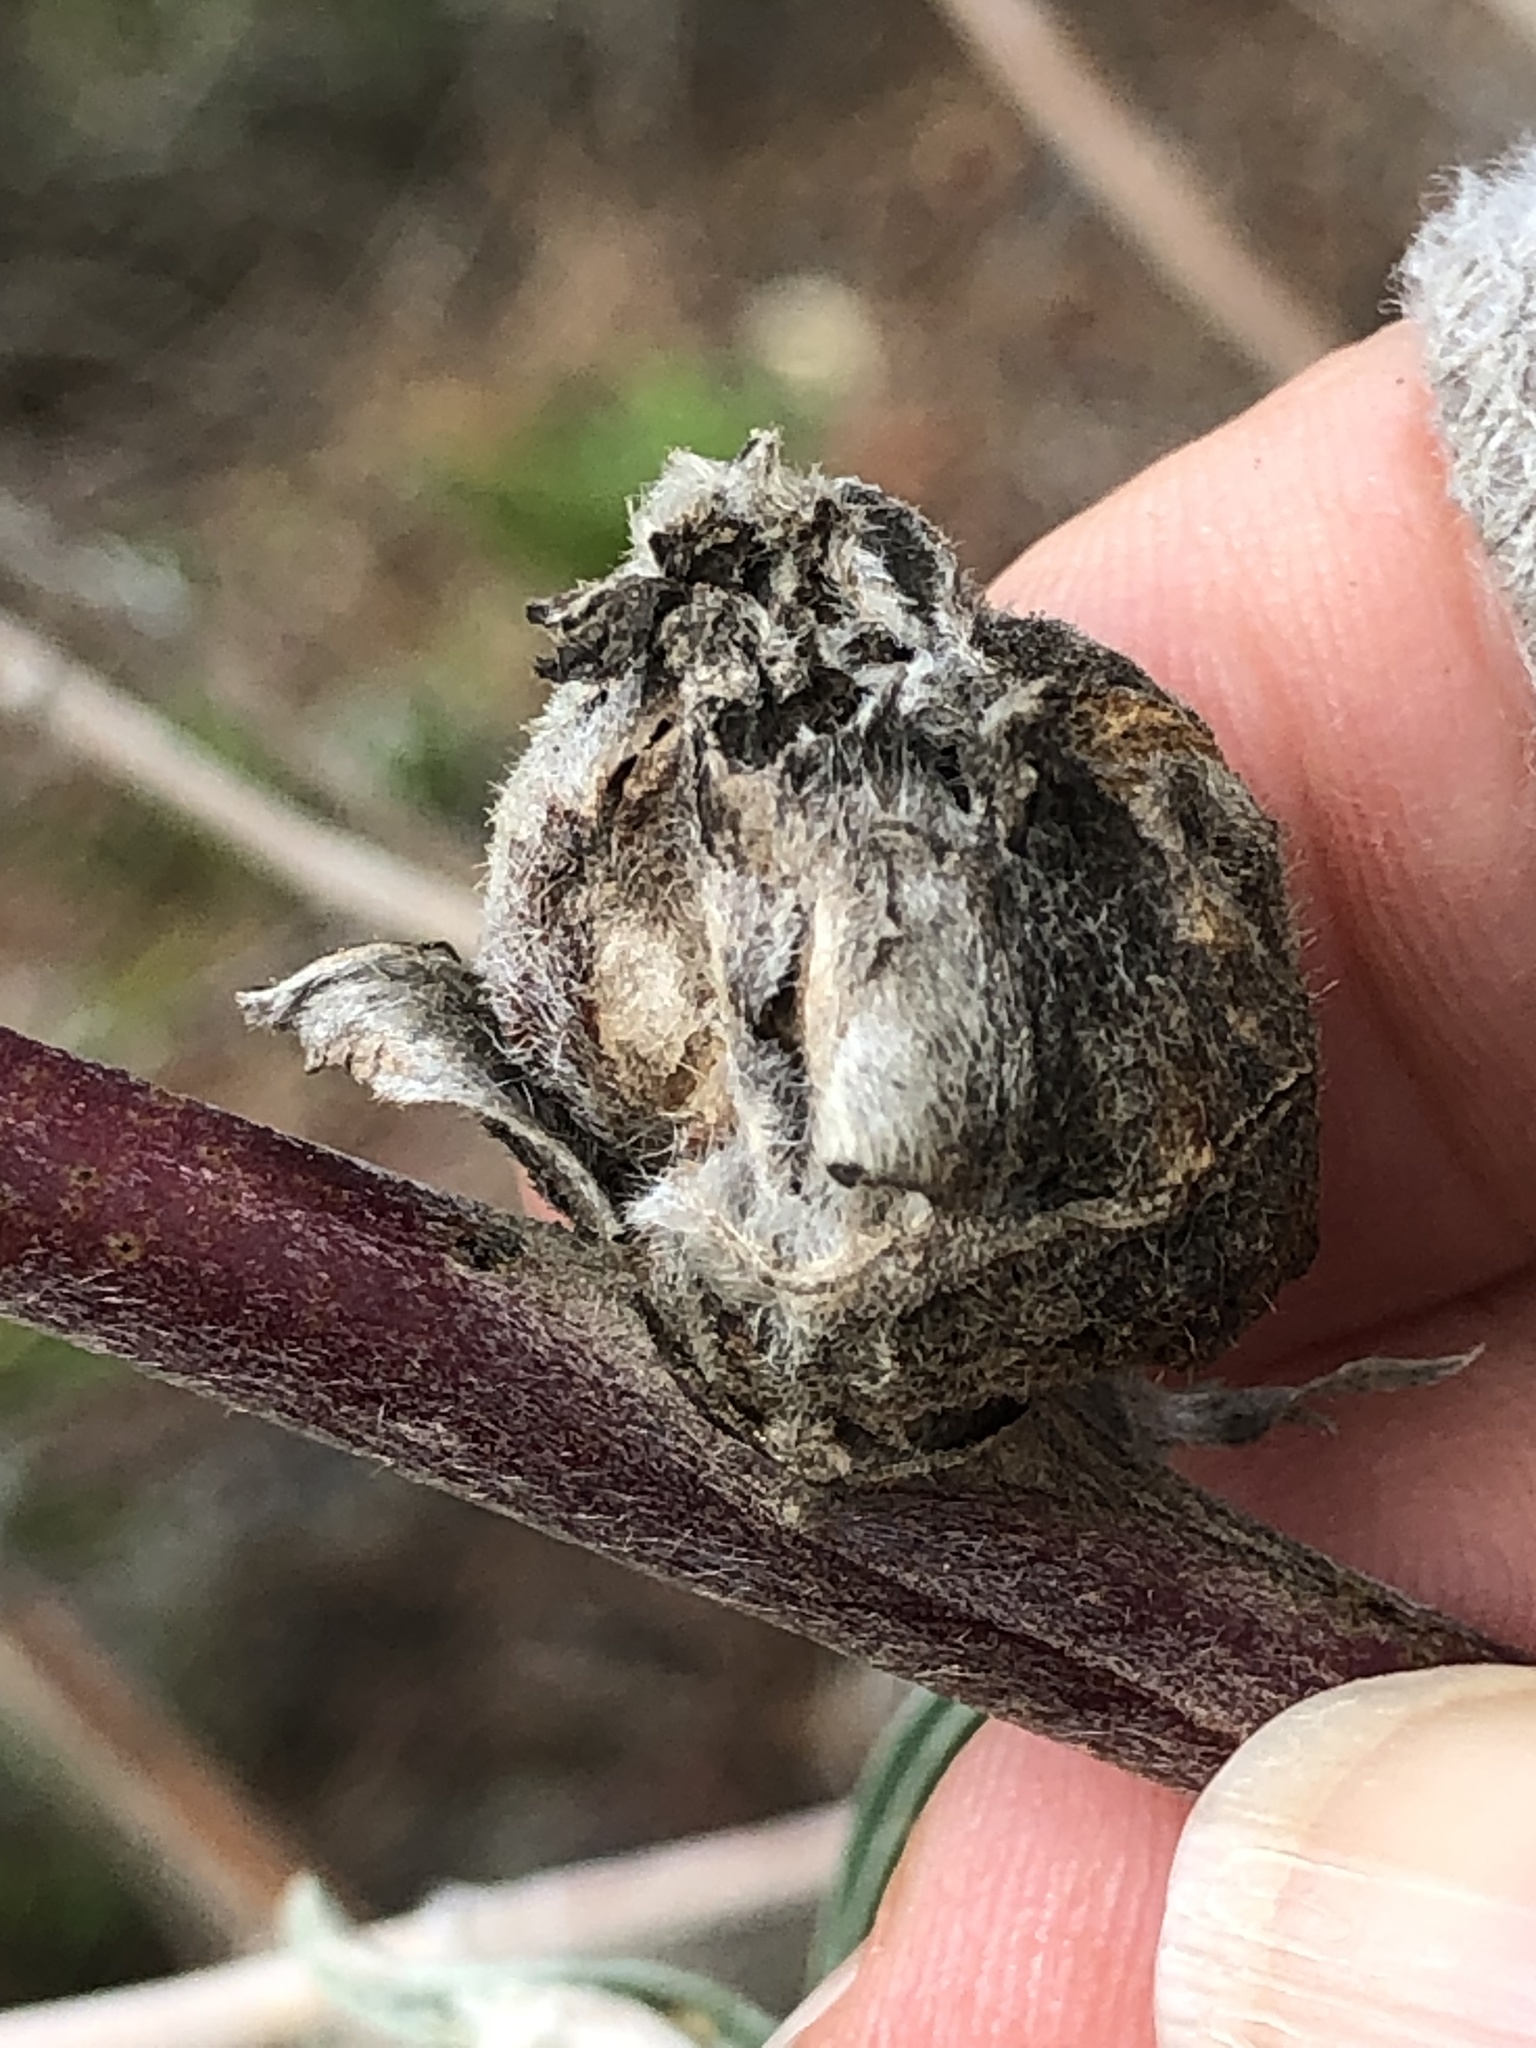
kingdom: Animalia
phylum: Arthropoda
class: Insecta
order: Diptera
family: Cecidomyiidae
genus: Dasineura
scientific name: Dasineura lupini
